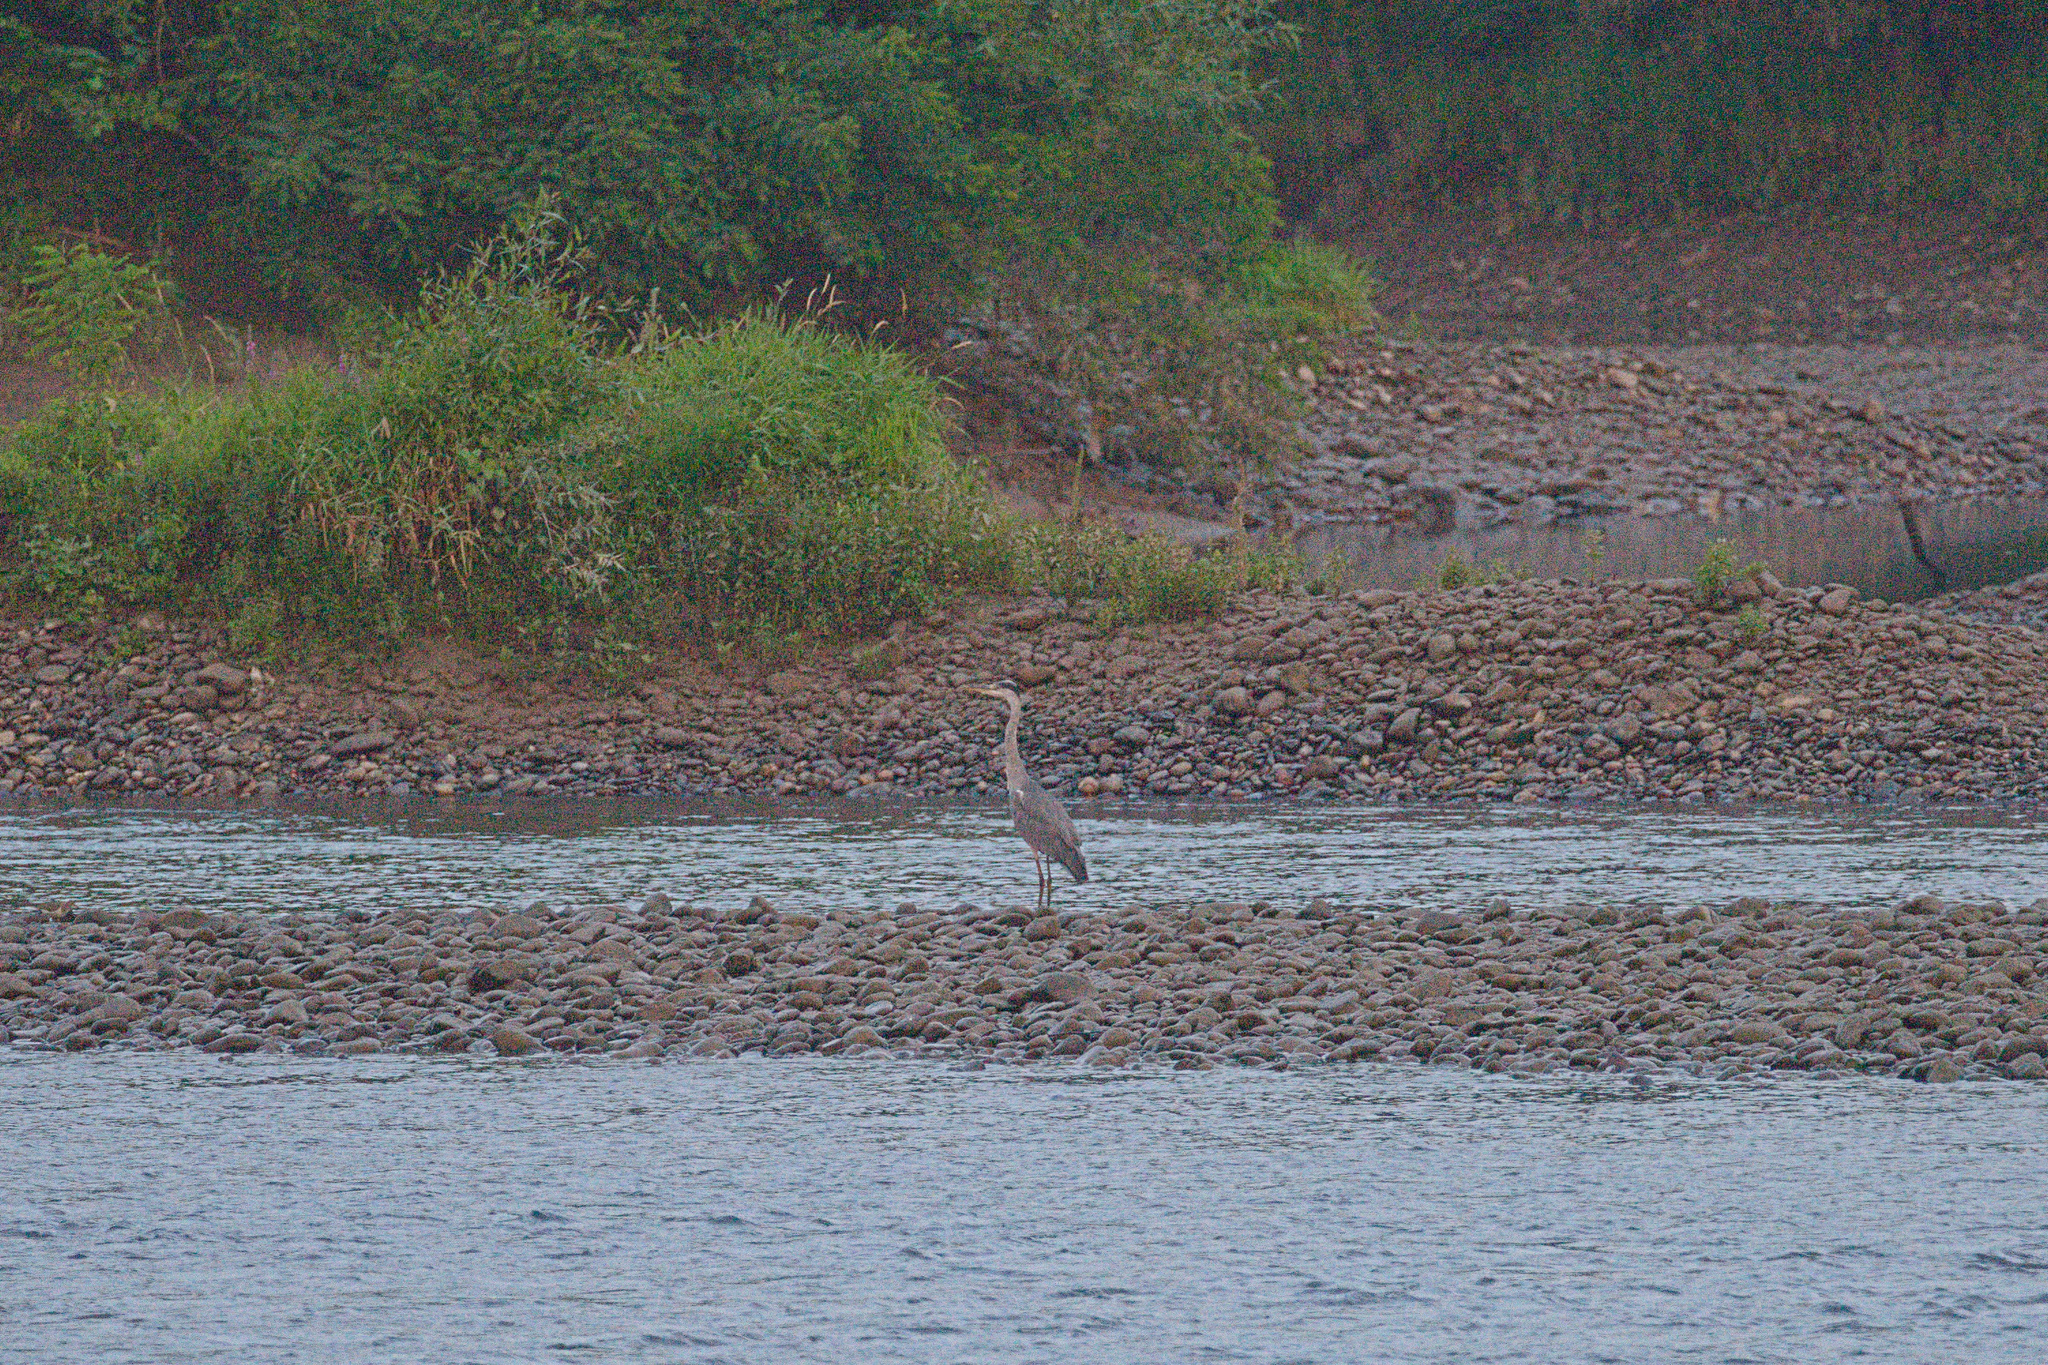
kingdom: Animalia
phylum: Chordata
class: Aves
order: Pelecaniformes
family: Ardeidae
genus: Ardea
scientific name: Ardea cinerea
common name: Grey heron
